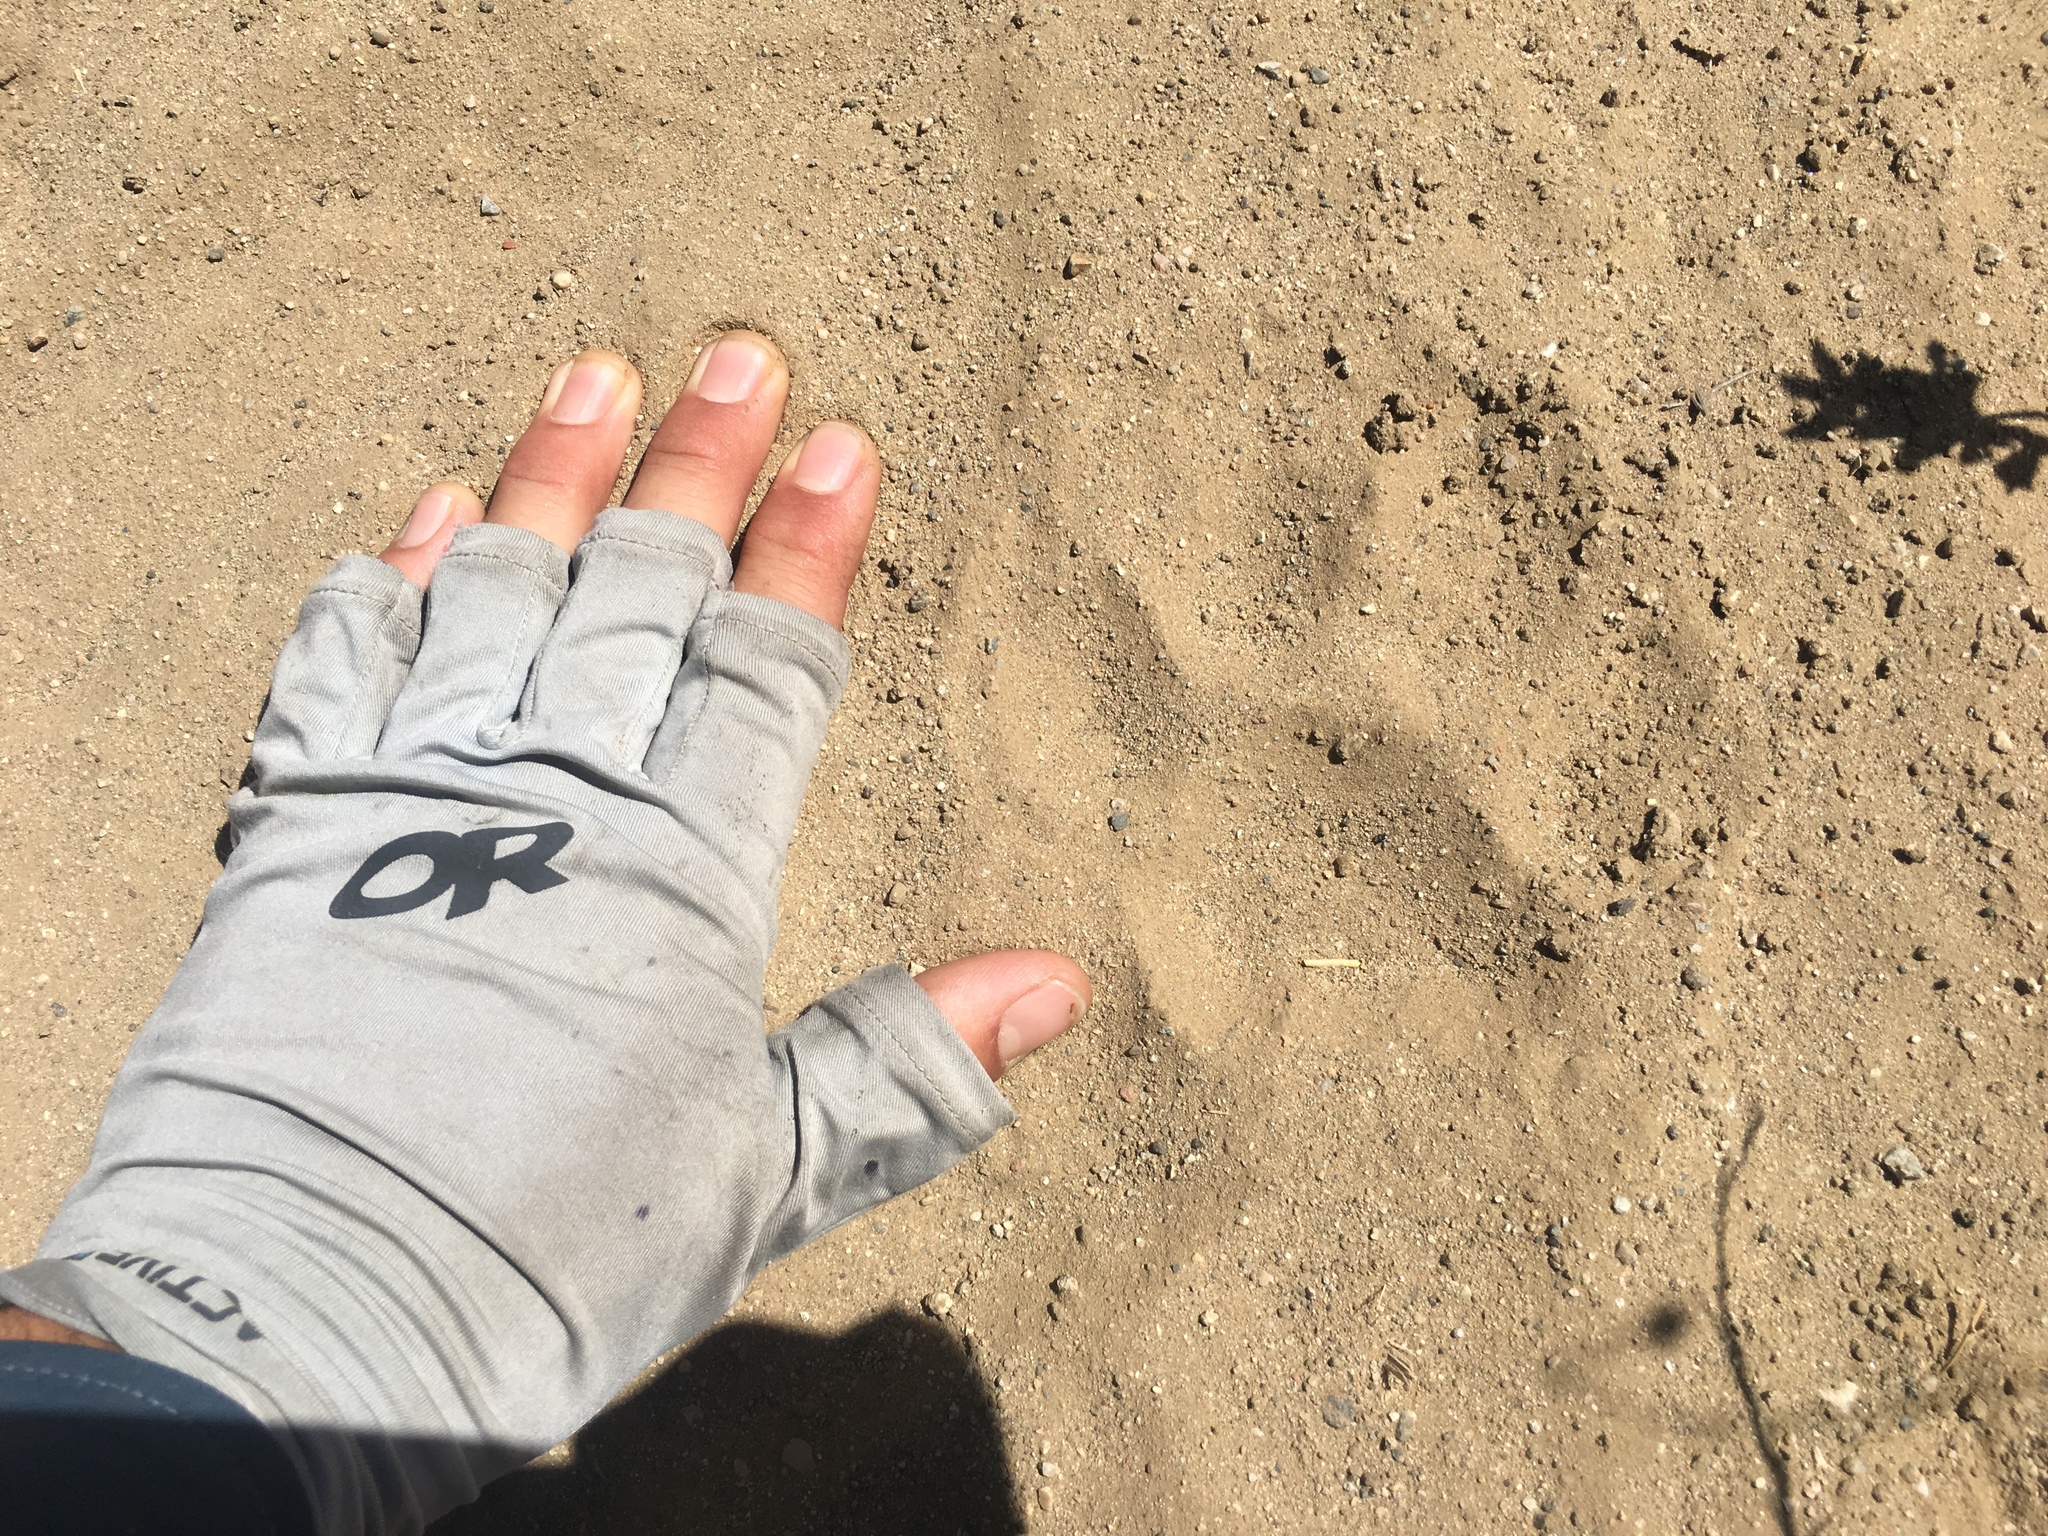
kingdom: Animalia
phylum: Chordata
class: Mammalia
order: Carnivora
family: Felidae
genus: Puma
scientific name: Puma concolor
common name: Puma
